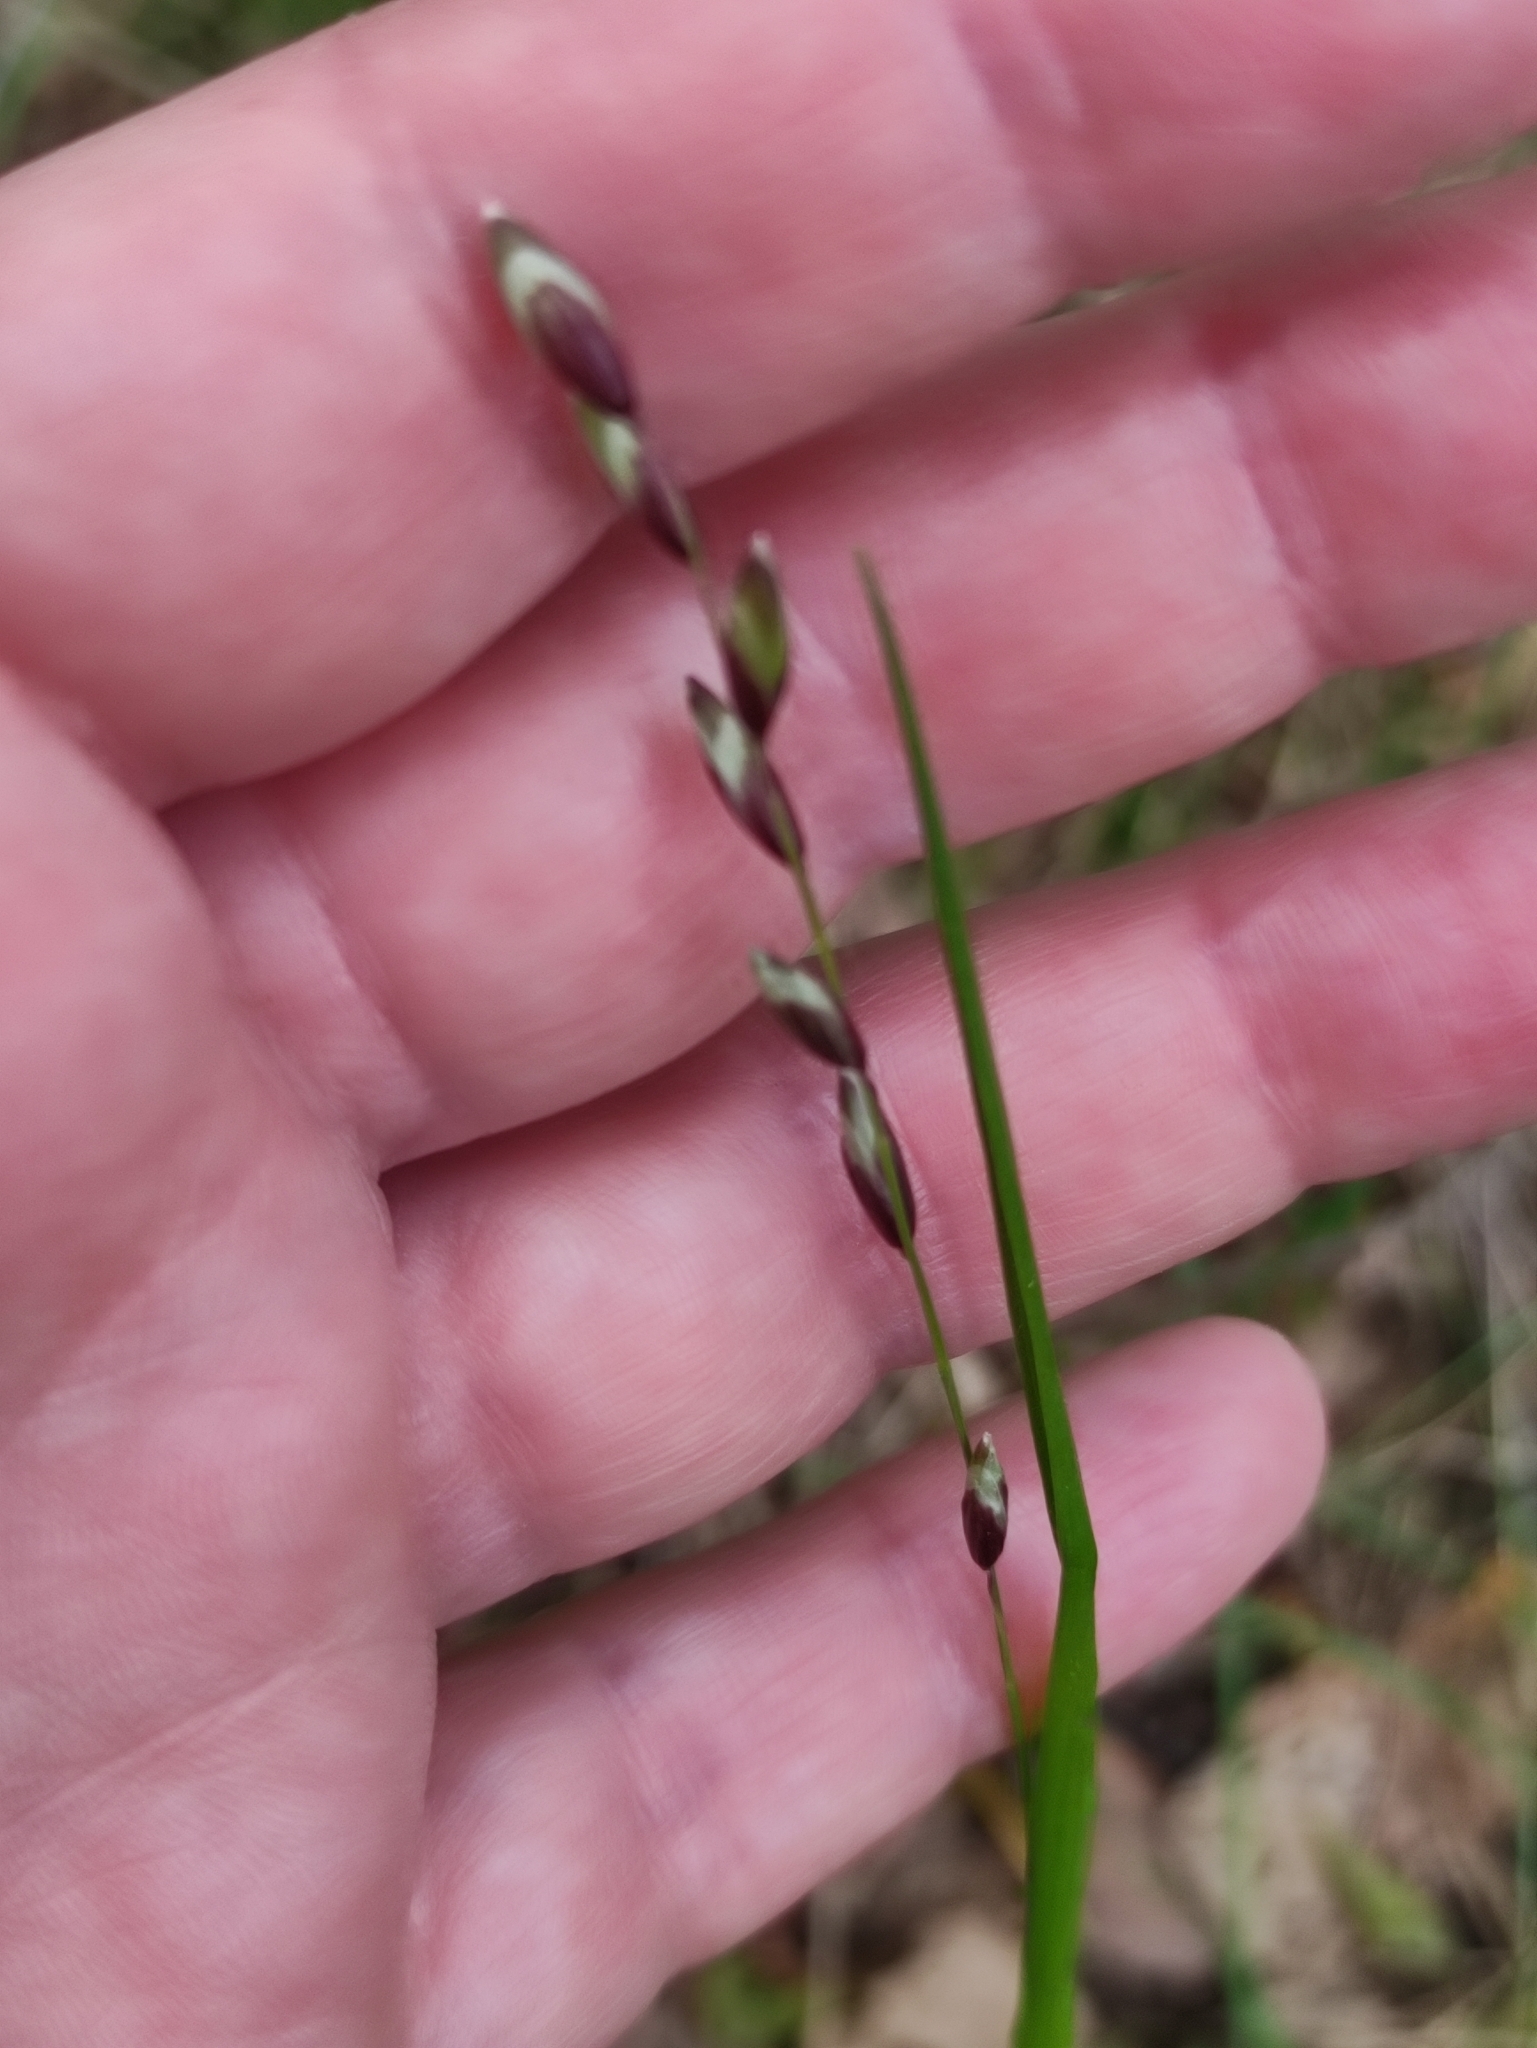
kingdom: Plantae
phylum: Tracheophyta
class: Liliopsida
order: Poales
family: Poaceae
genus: Melica
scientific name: Melica nutans
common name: Mountain melick
